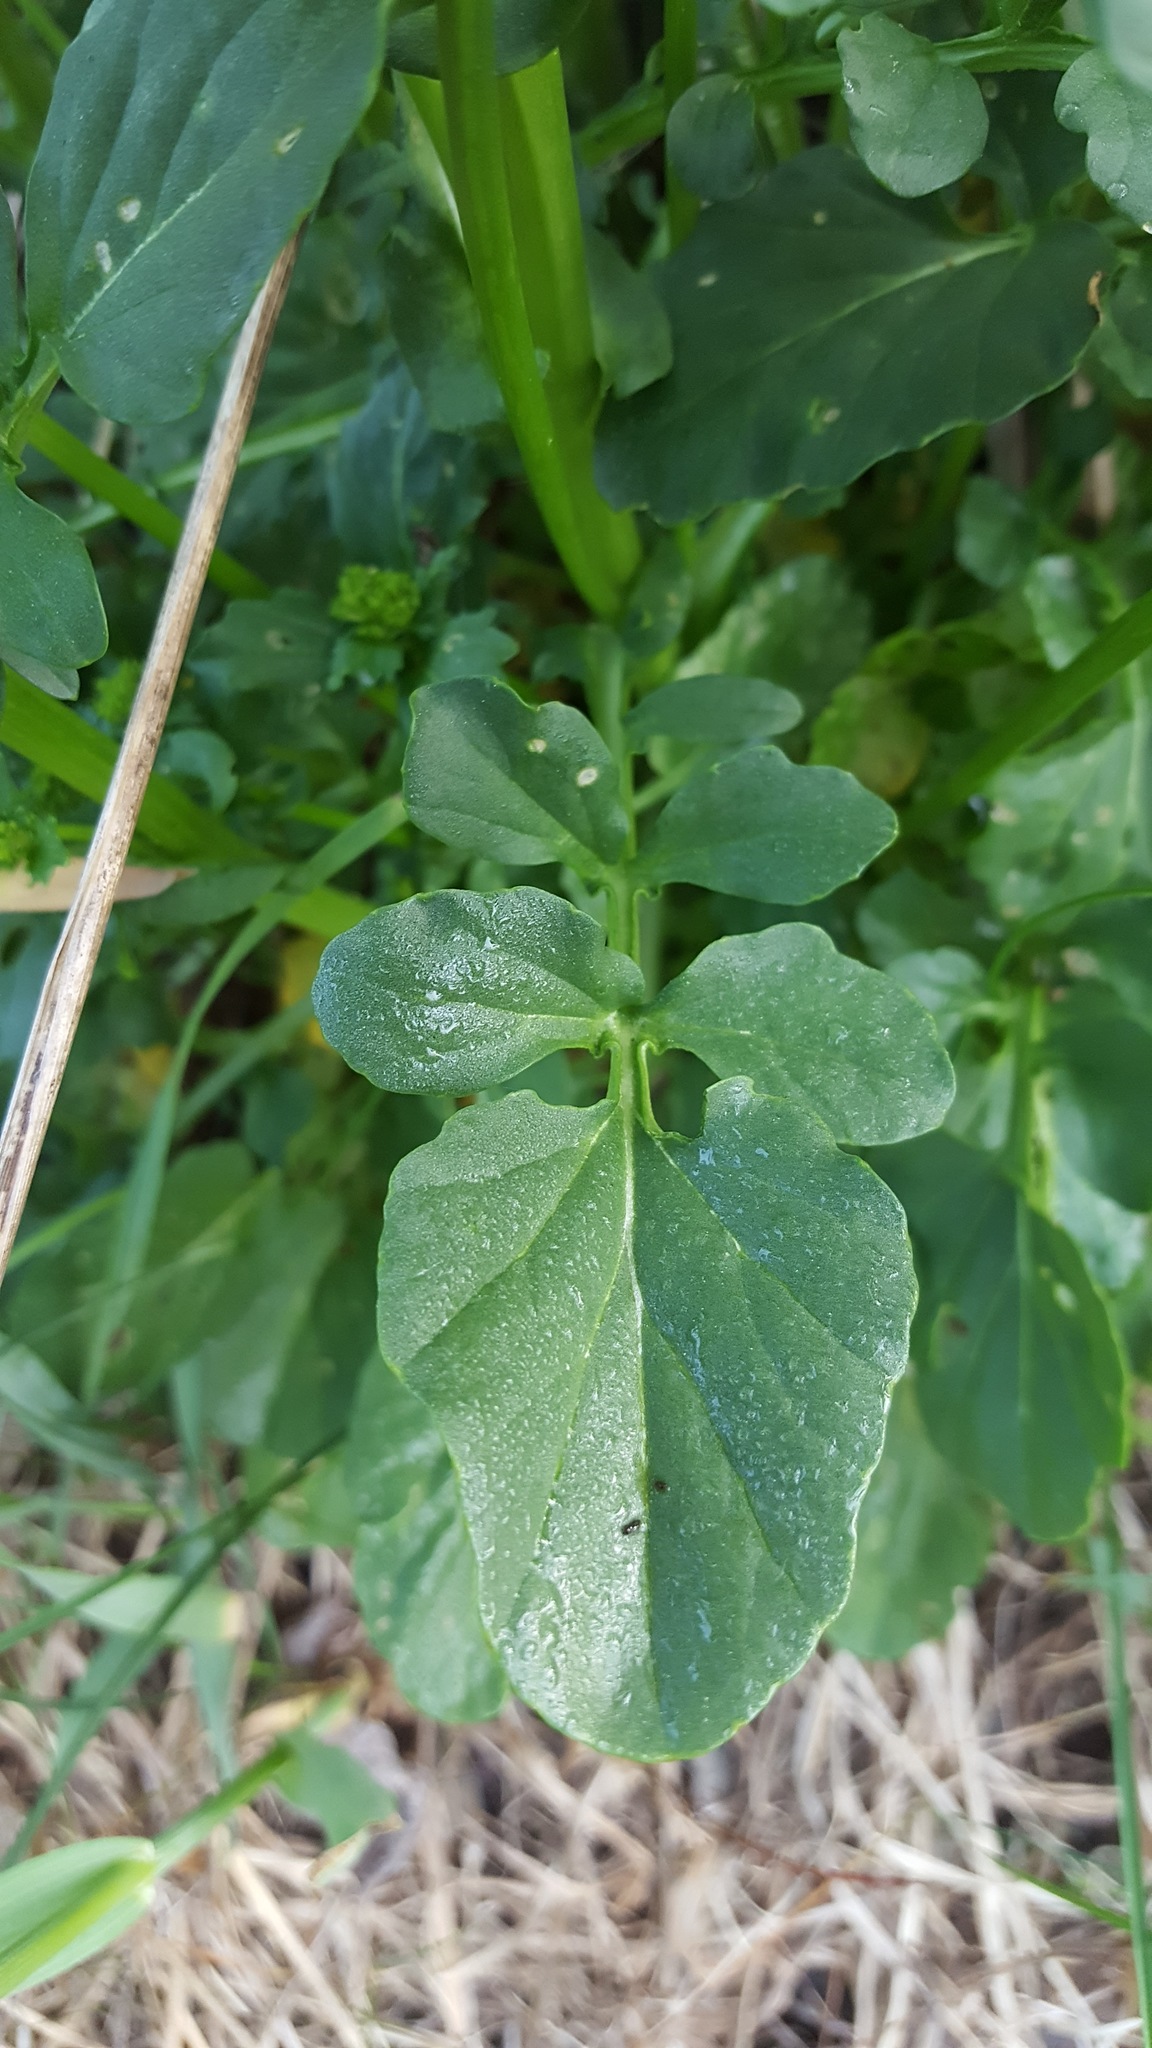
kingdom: Plantae
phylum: Tracheophyta
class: Magnoliopsida
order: Brassicales
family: Brassicaceae
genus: Barbarea
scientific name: Barbarea vulgaris
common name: Cressy-greens
